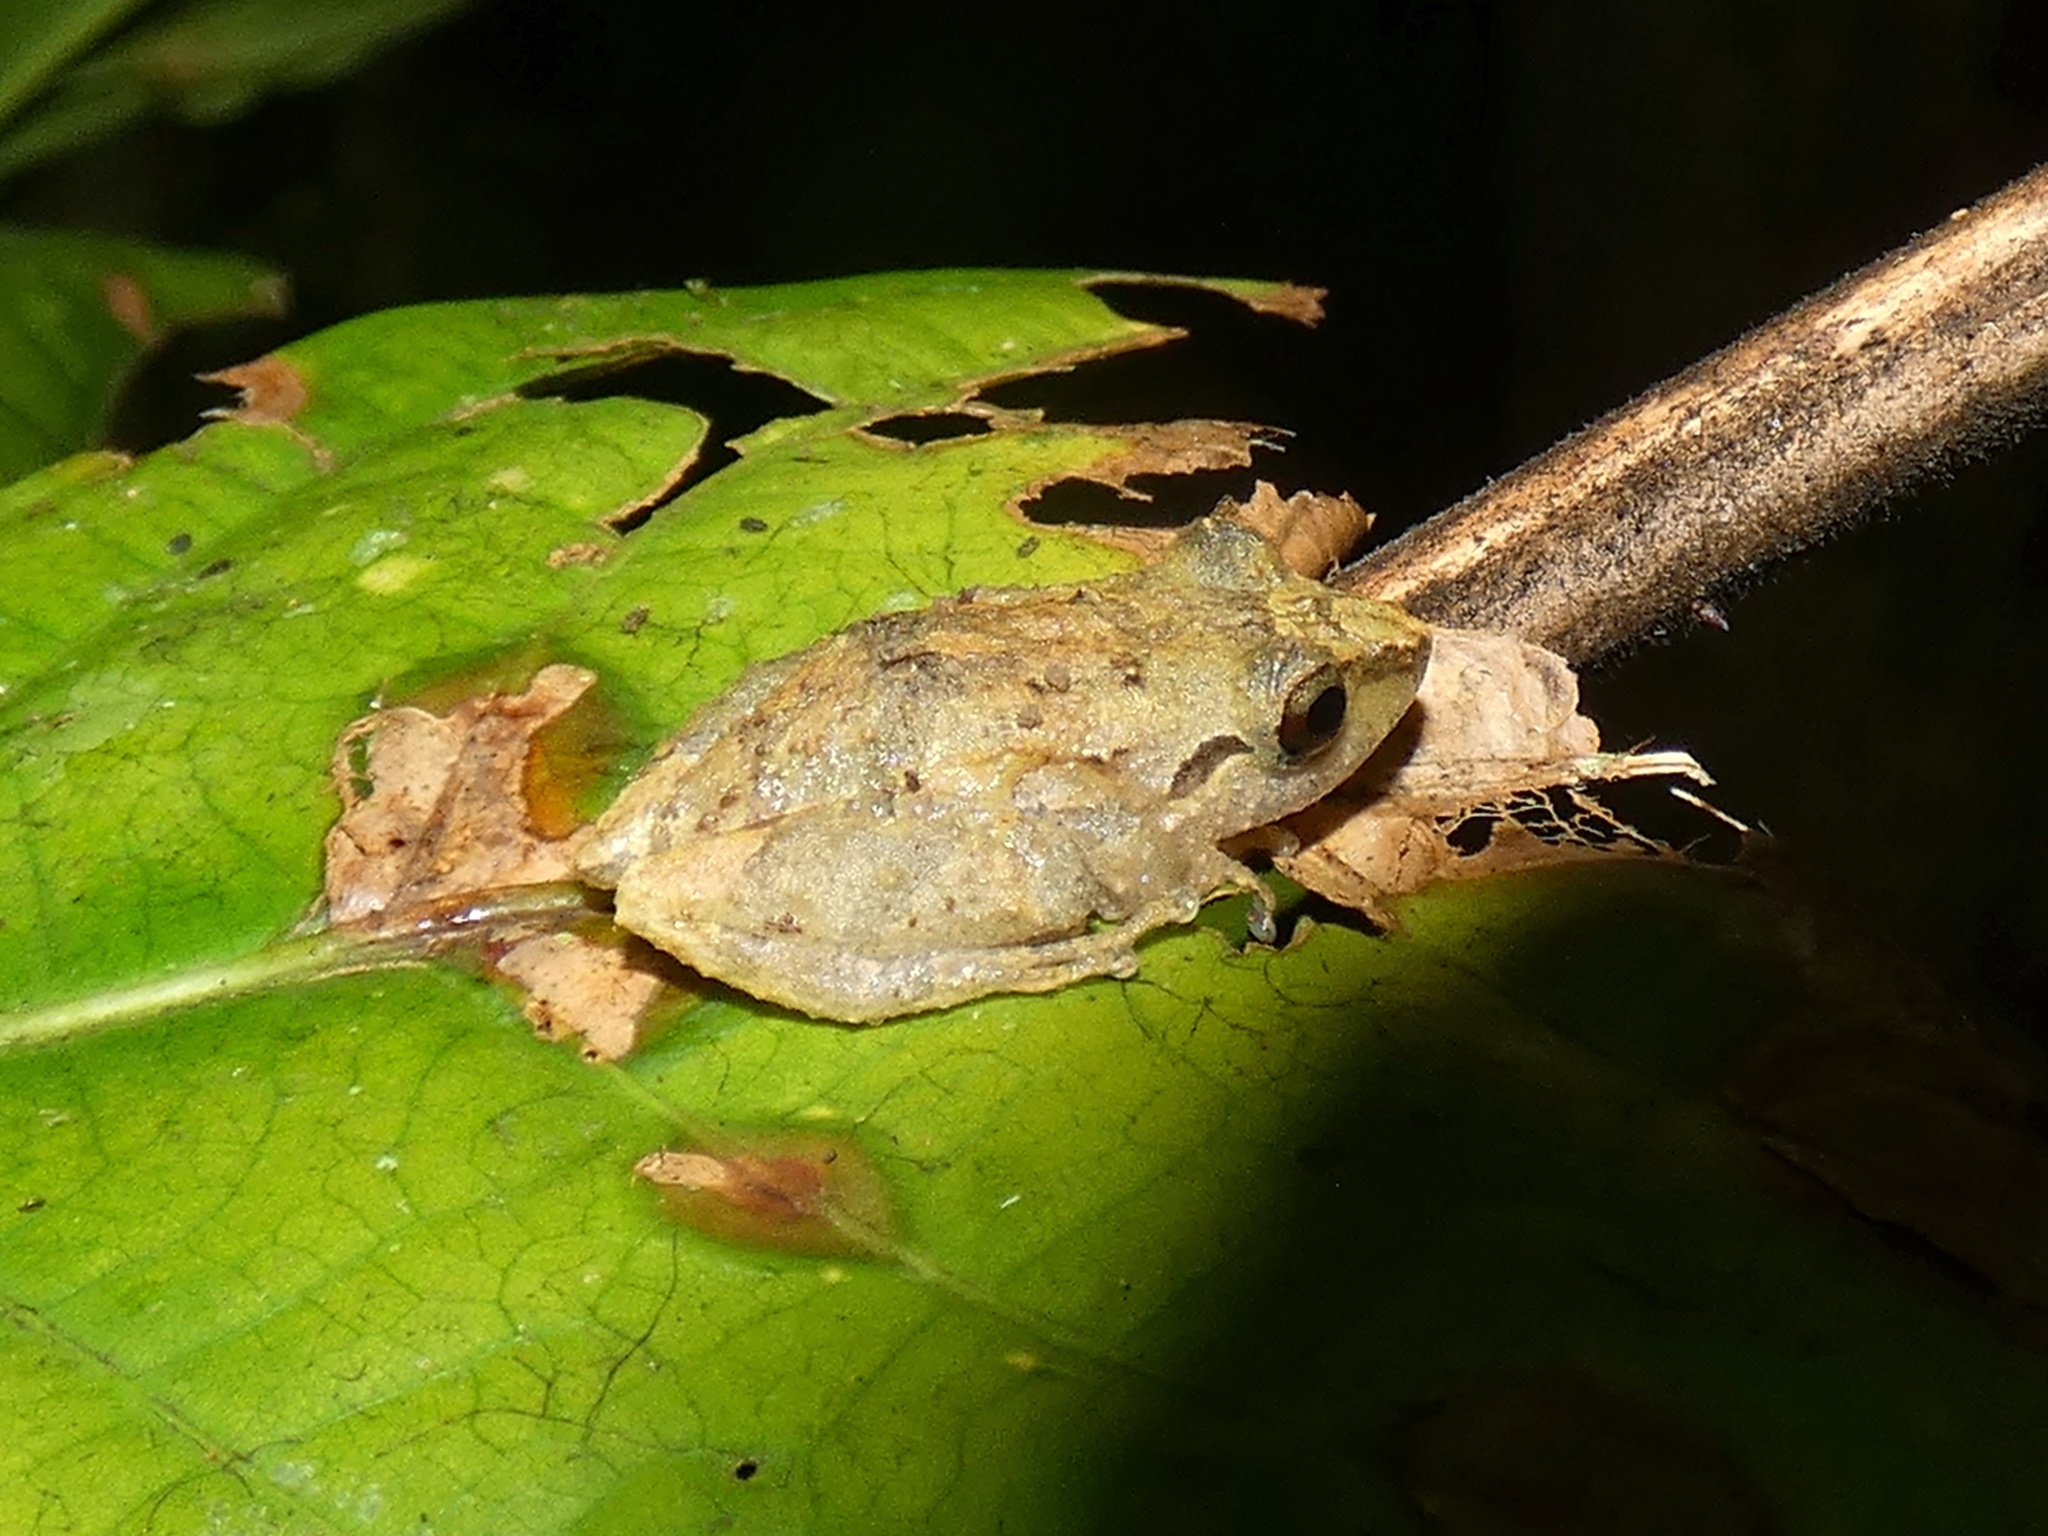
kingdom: Animalia
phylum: Chordata
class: Amphibia
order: Anura
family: Craugastoridae
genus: Pristimantis
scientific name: Pristimantis ridens
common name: Rio san juan robber frog
